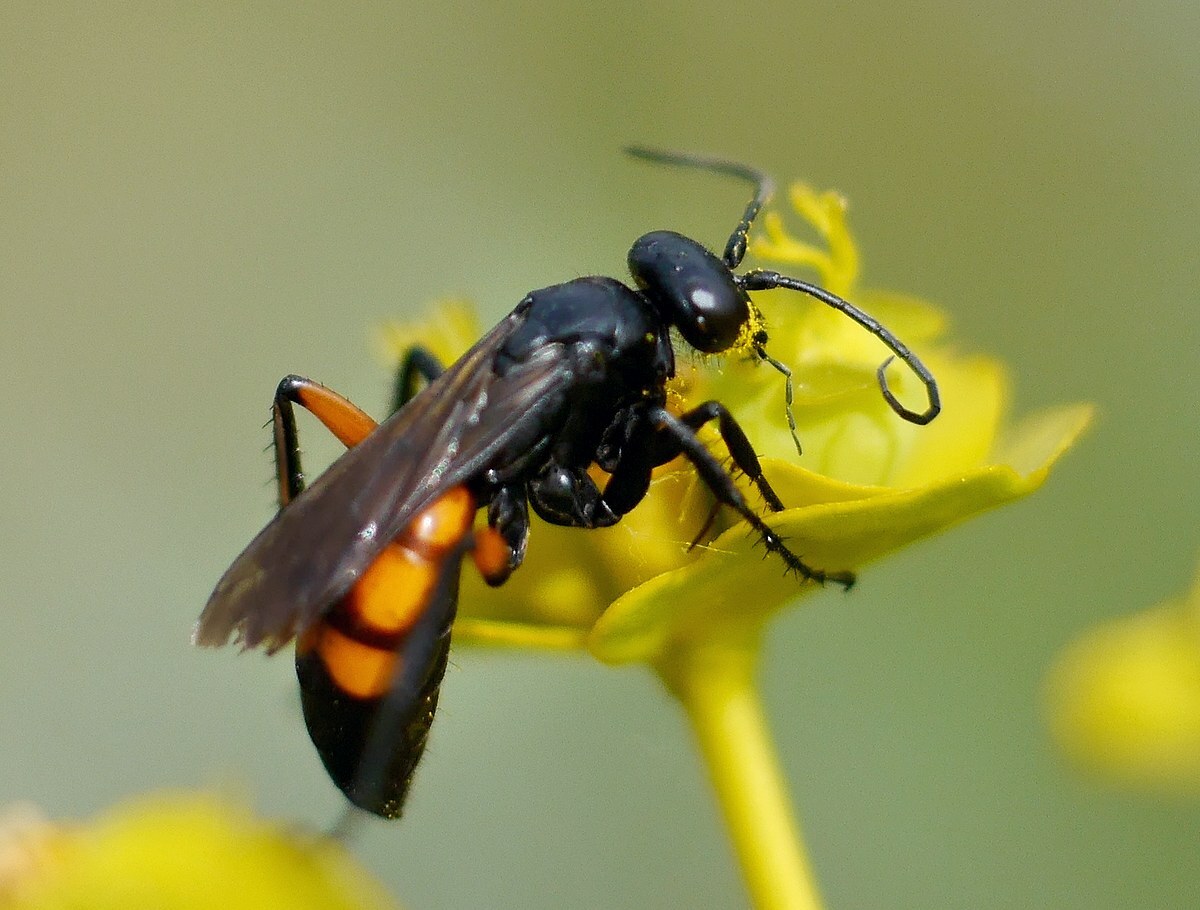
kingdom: Animalia
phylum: Arthropoda
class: Insecta
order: Hymenoptera
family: Pompilidae
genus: Anoplius
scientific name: Anoplius viaticus
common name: Black banded spider wasp
